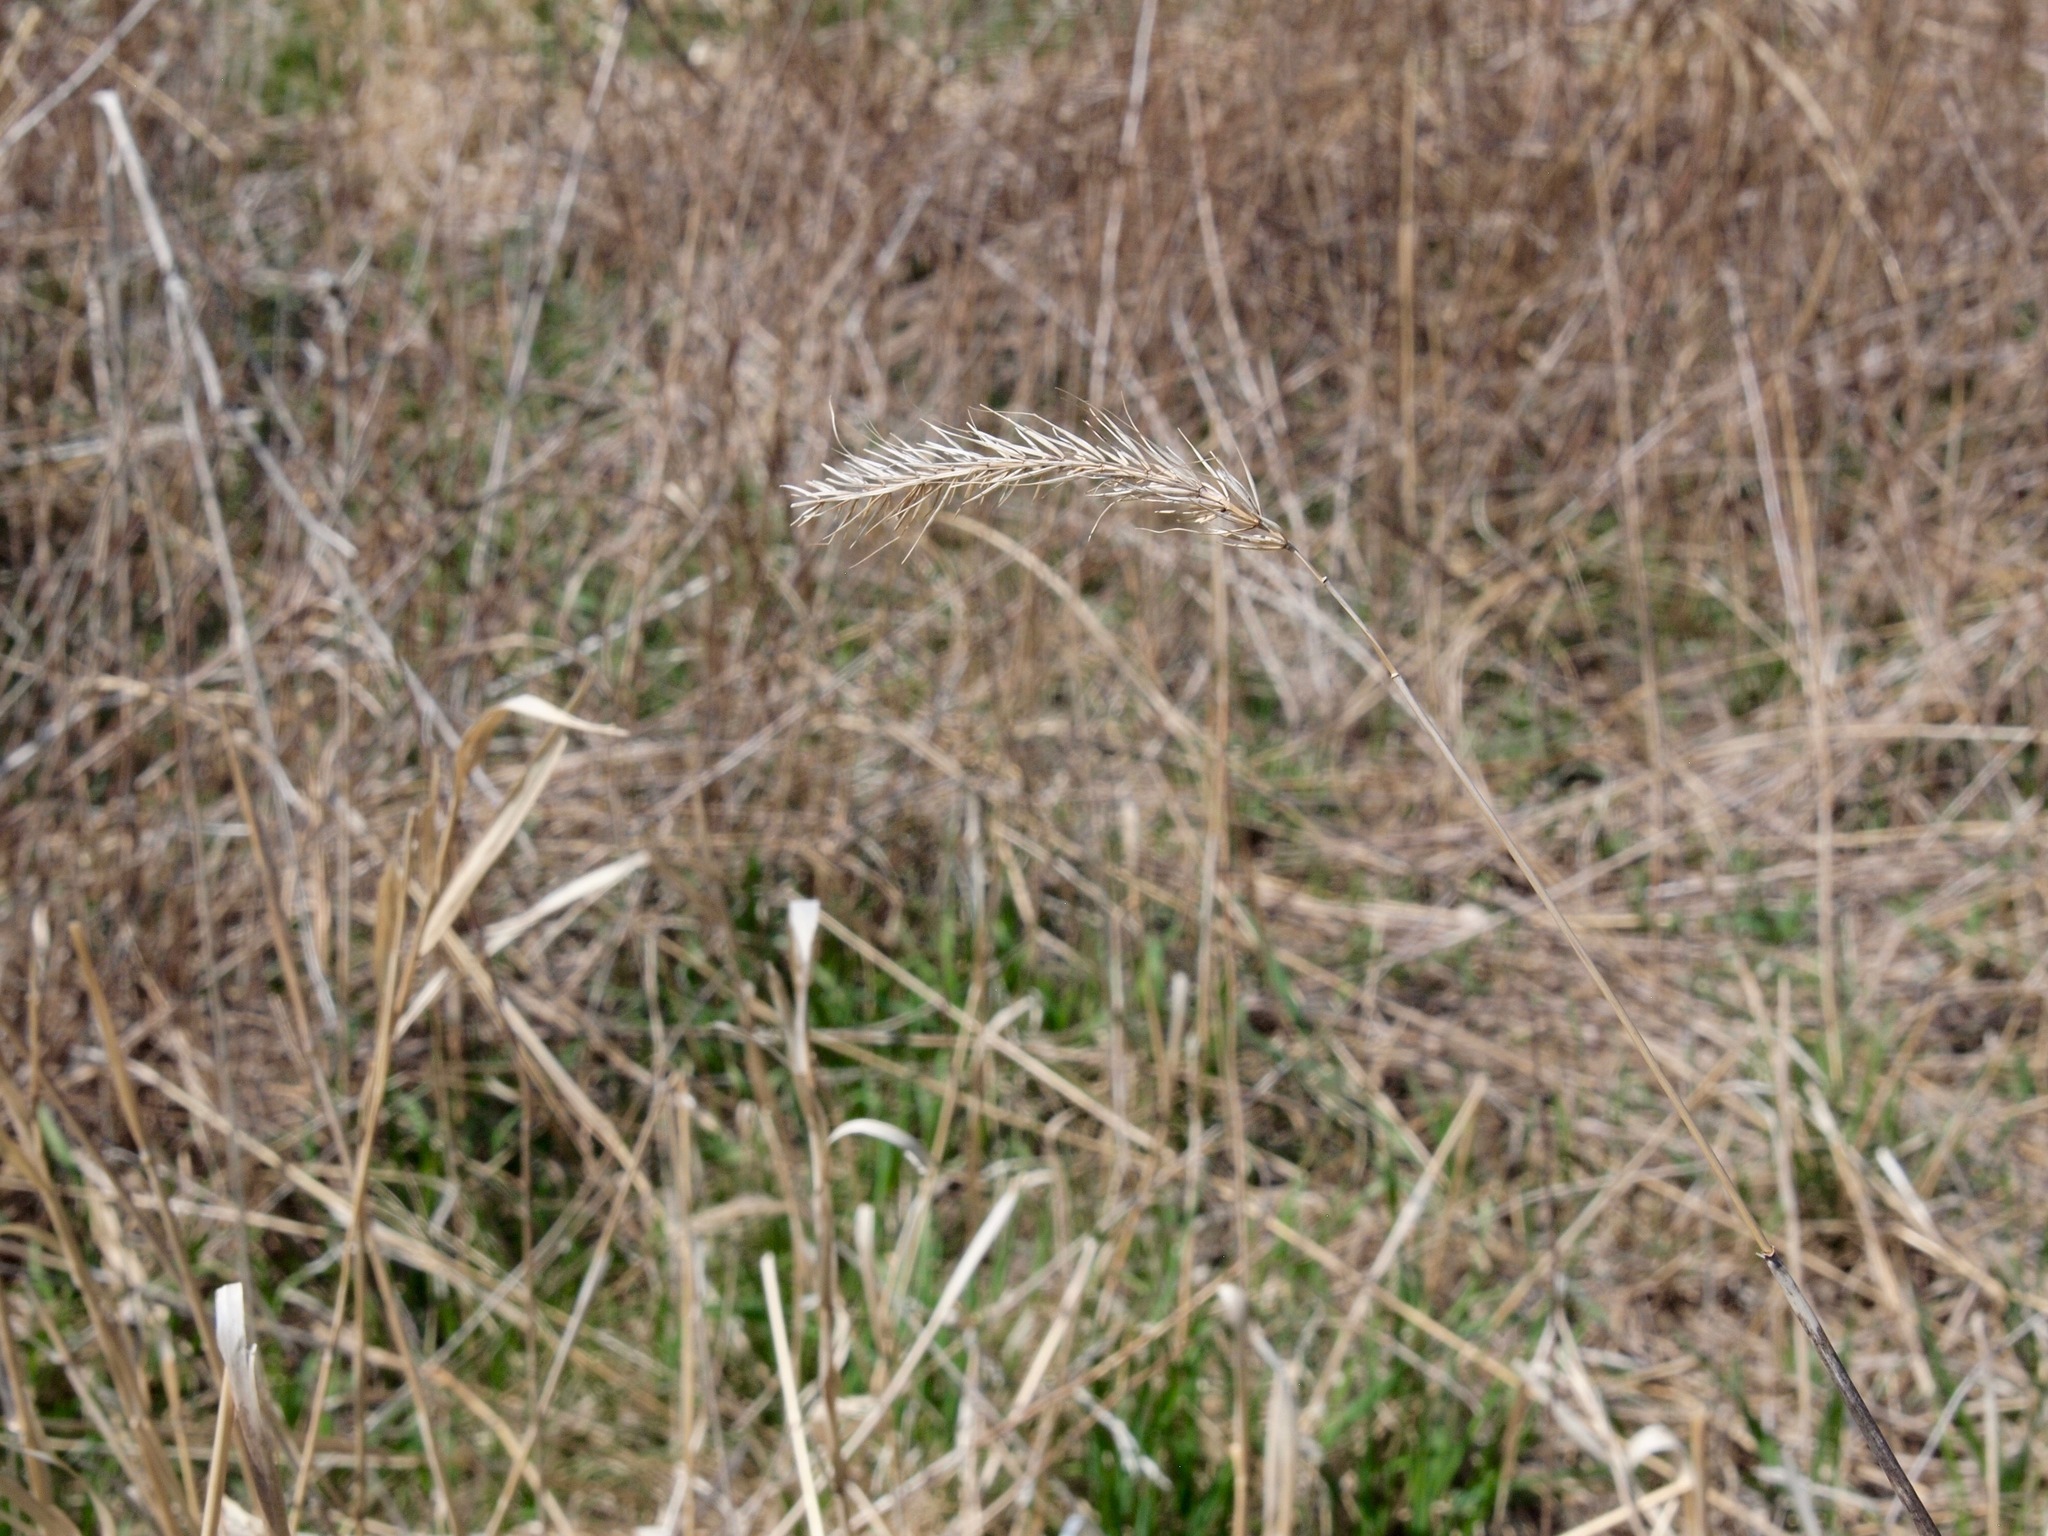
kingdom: Plantae
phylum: Tracheophyta
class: Liliopsida
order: Poales
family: Poaceae
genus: Elymus
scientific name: Elymus canadensis
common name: Canada wild rye
